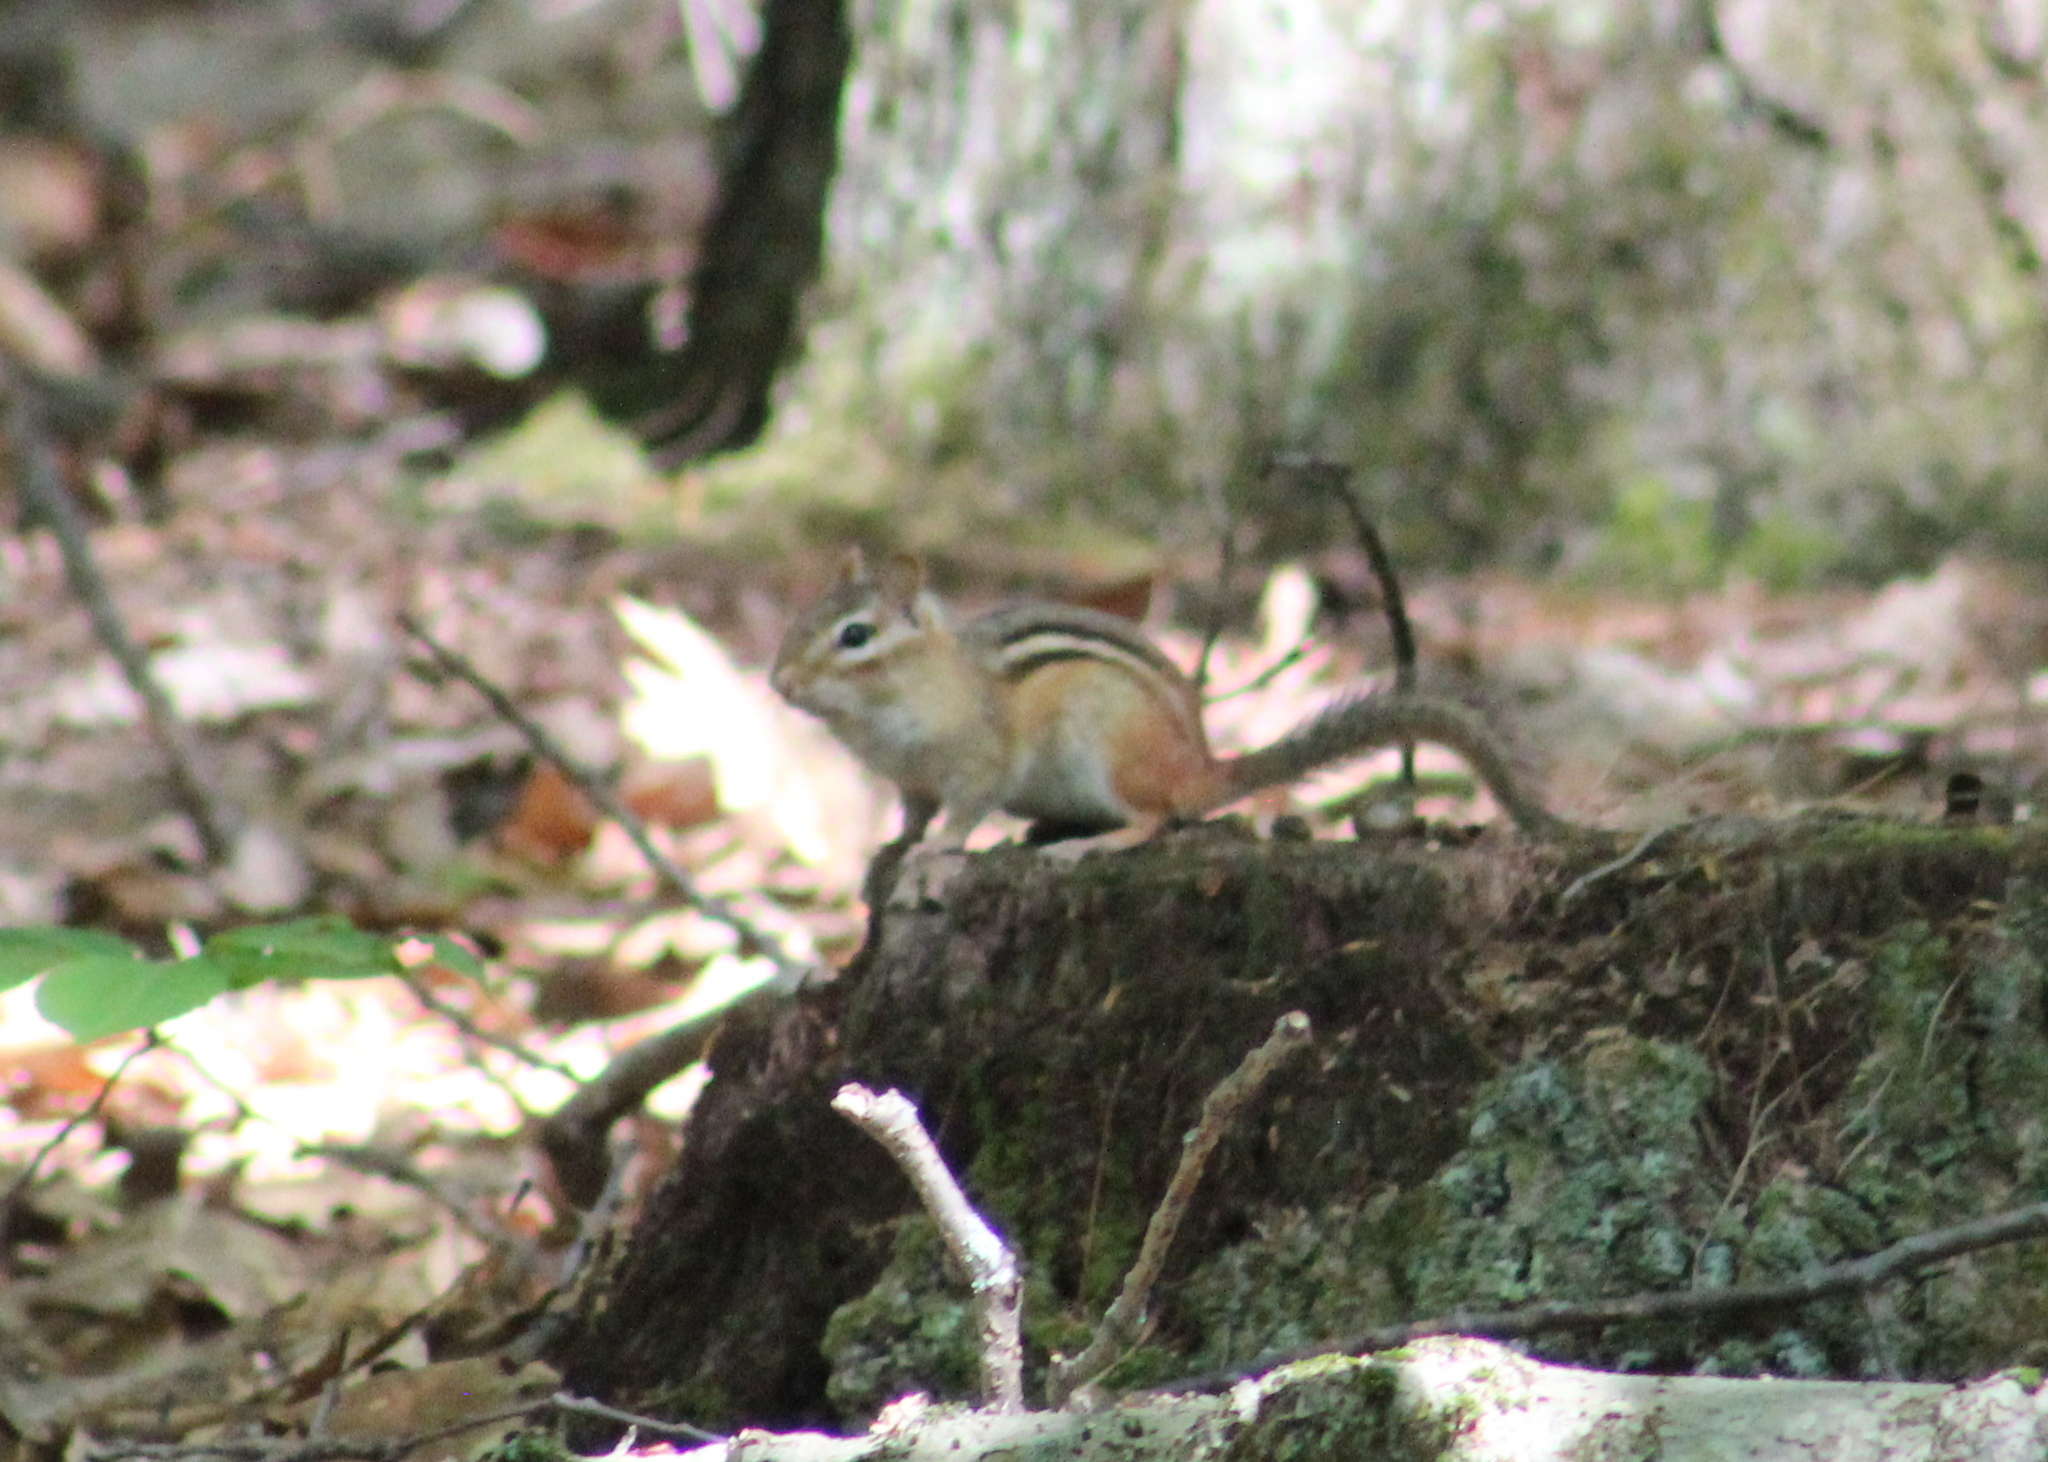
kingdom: Animalia
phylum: Chordata
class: Mammalia
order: Rodentia
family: Sciuridae
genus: Tamias
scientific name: Tamias striatus
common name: Eastern chipmunk
